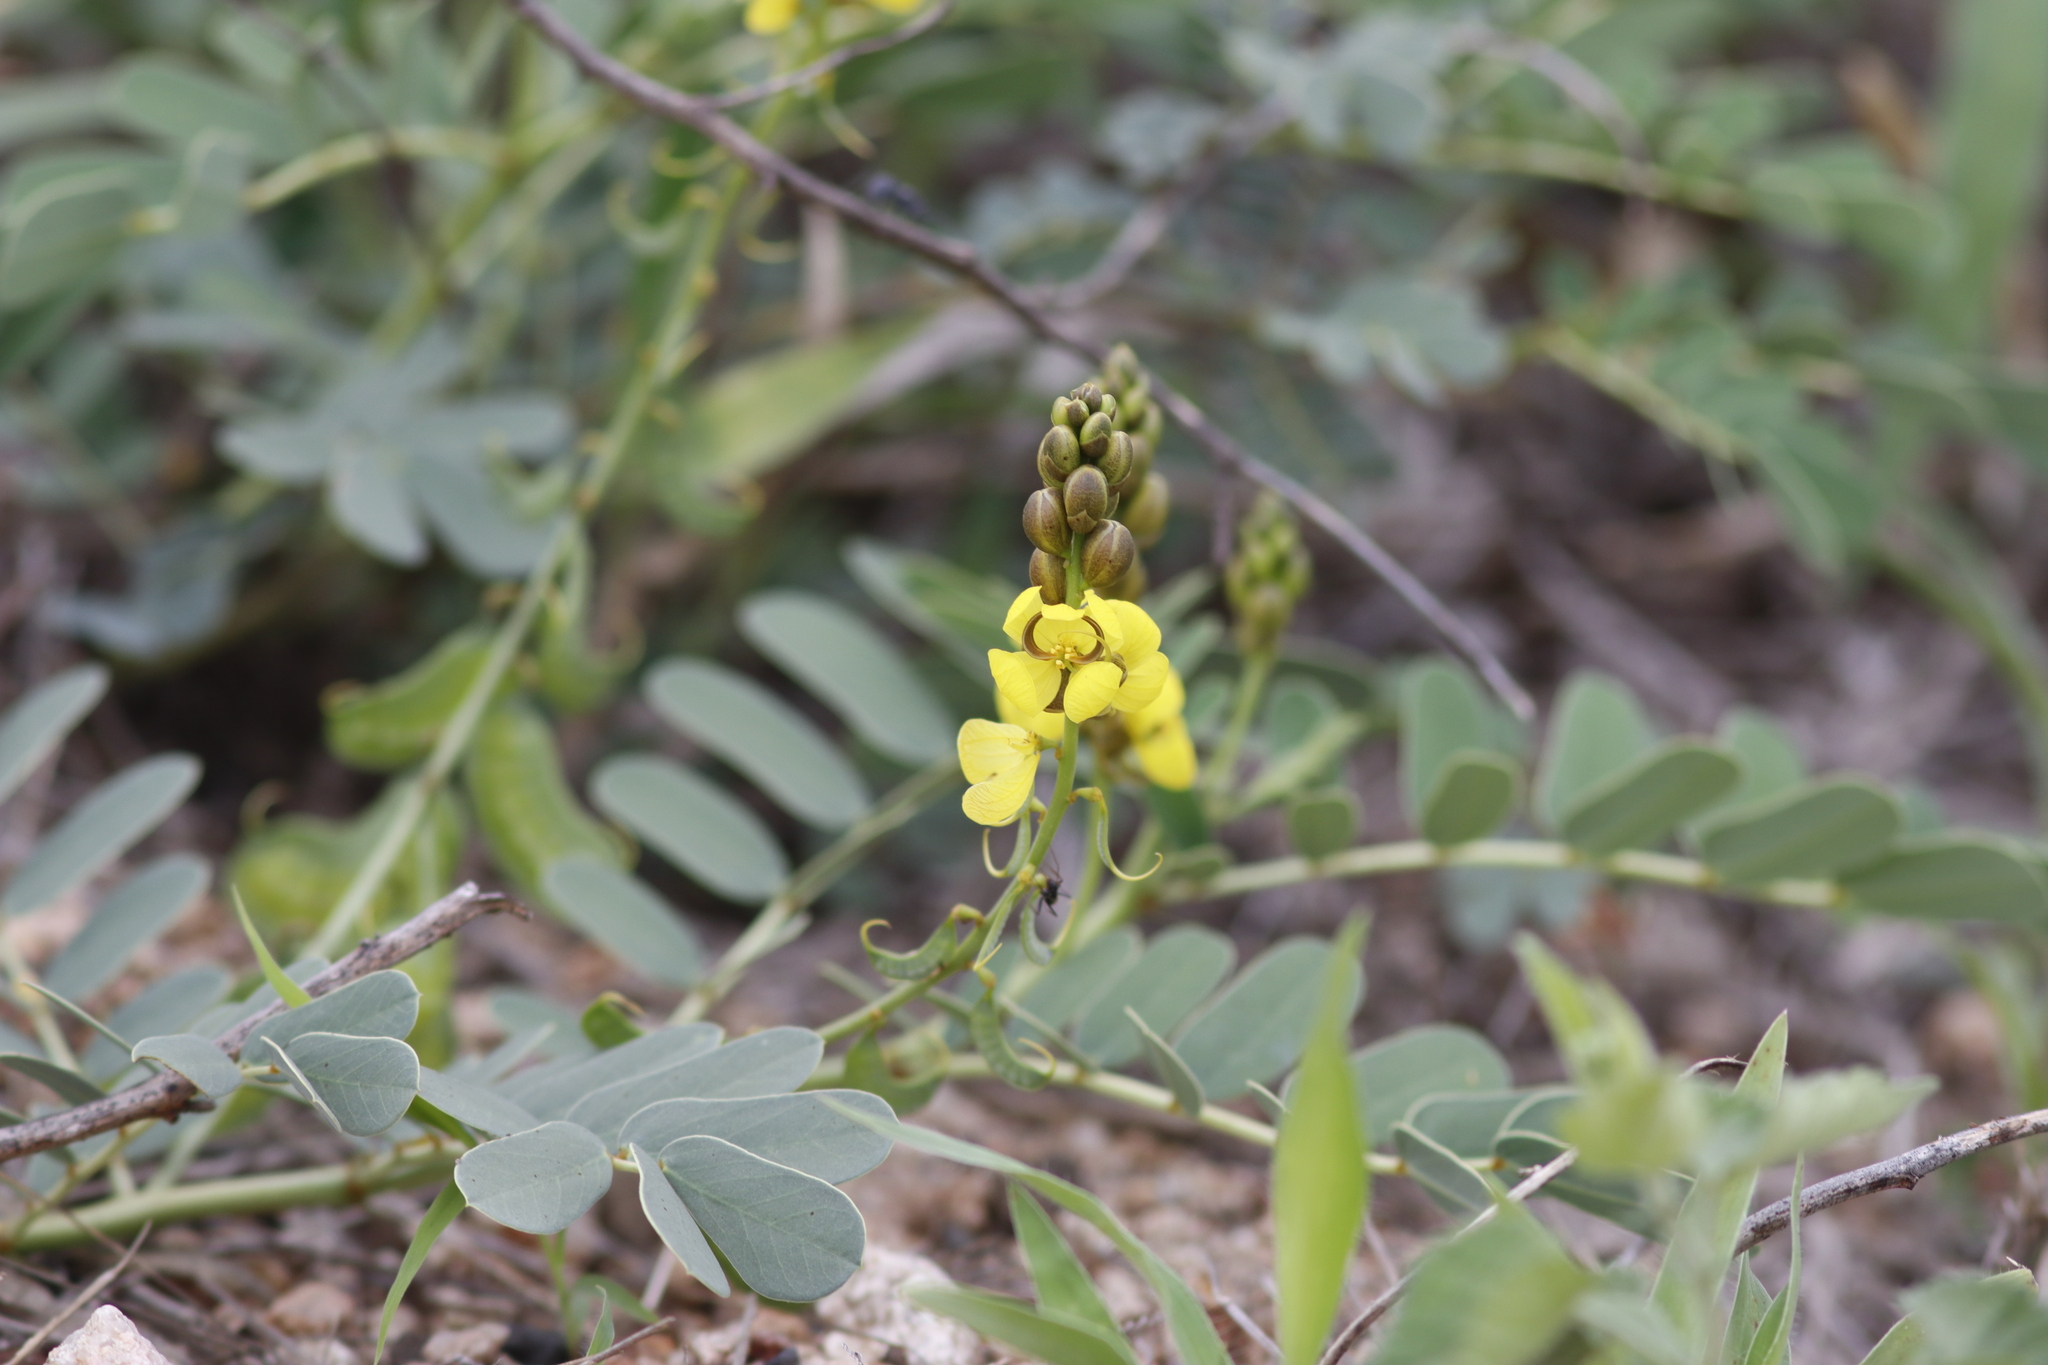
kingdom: Plantae
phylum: Tracheophyta
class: Magnoliopsida
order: Fabales
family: Fabaceae
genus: Senna
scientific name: Senna italica
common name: Port royal senna
